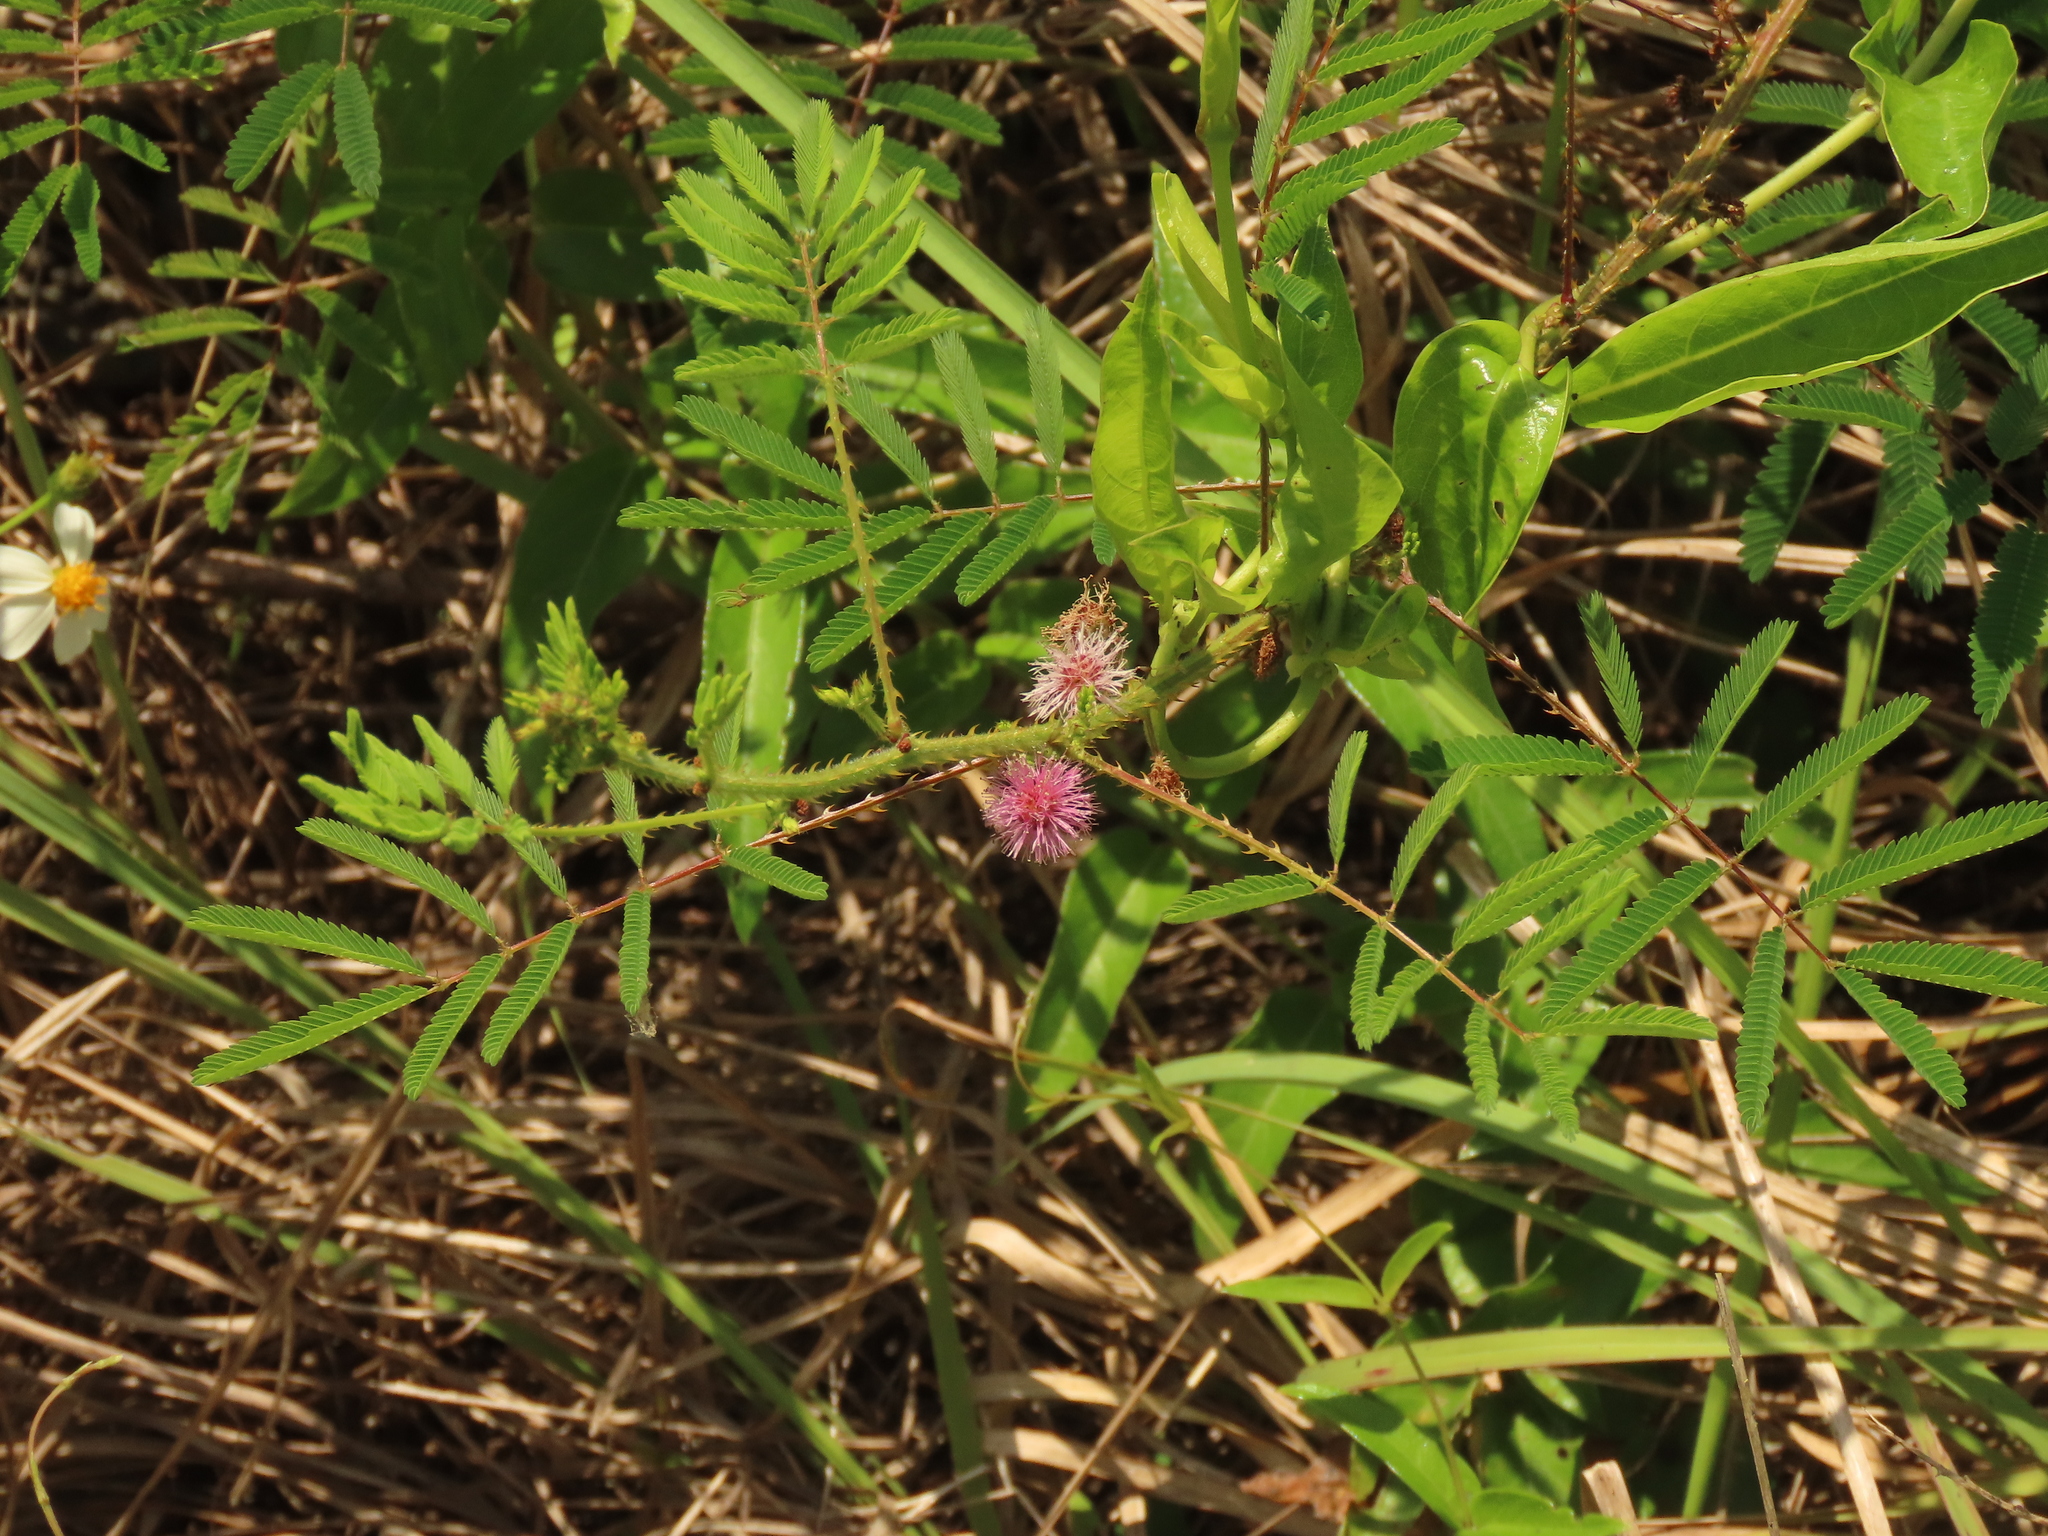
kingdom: Plantae
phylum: Tracheophyta
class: Magnoliopsida
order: Fabales
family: Fabaceae
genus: Mimosa
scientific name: Mimosa diplotricha
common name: Giant sensitive-plant
